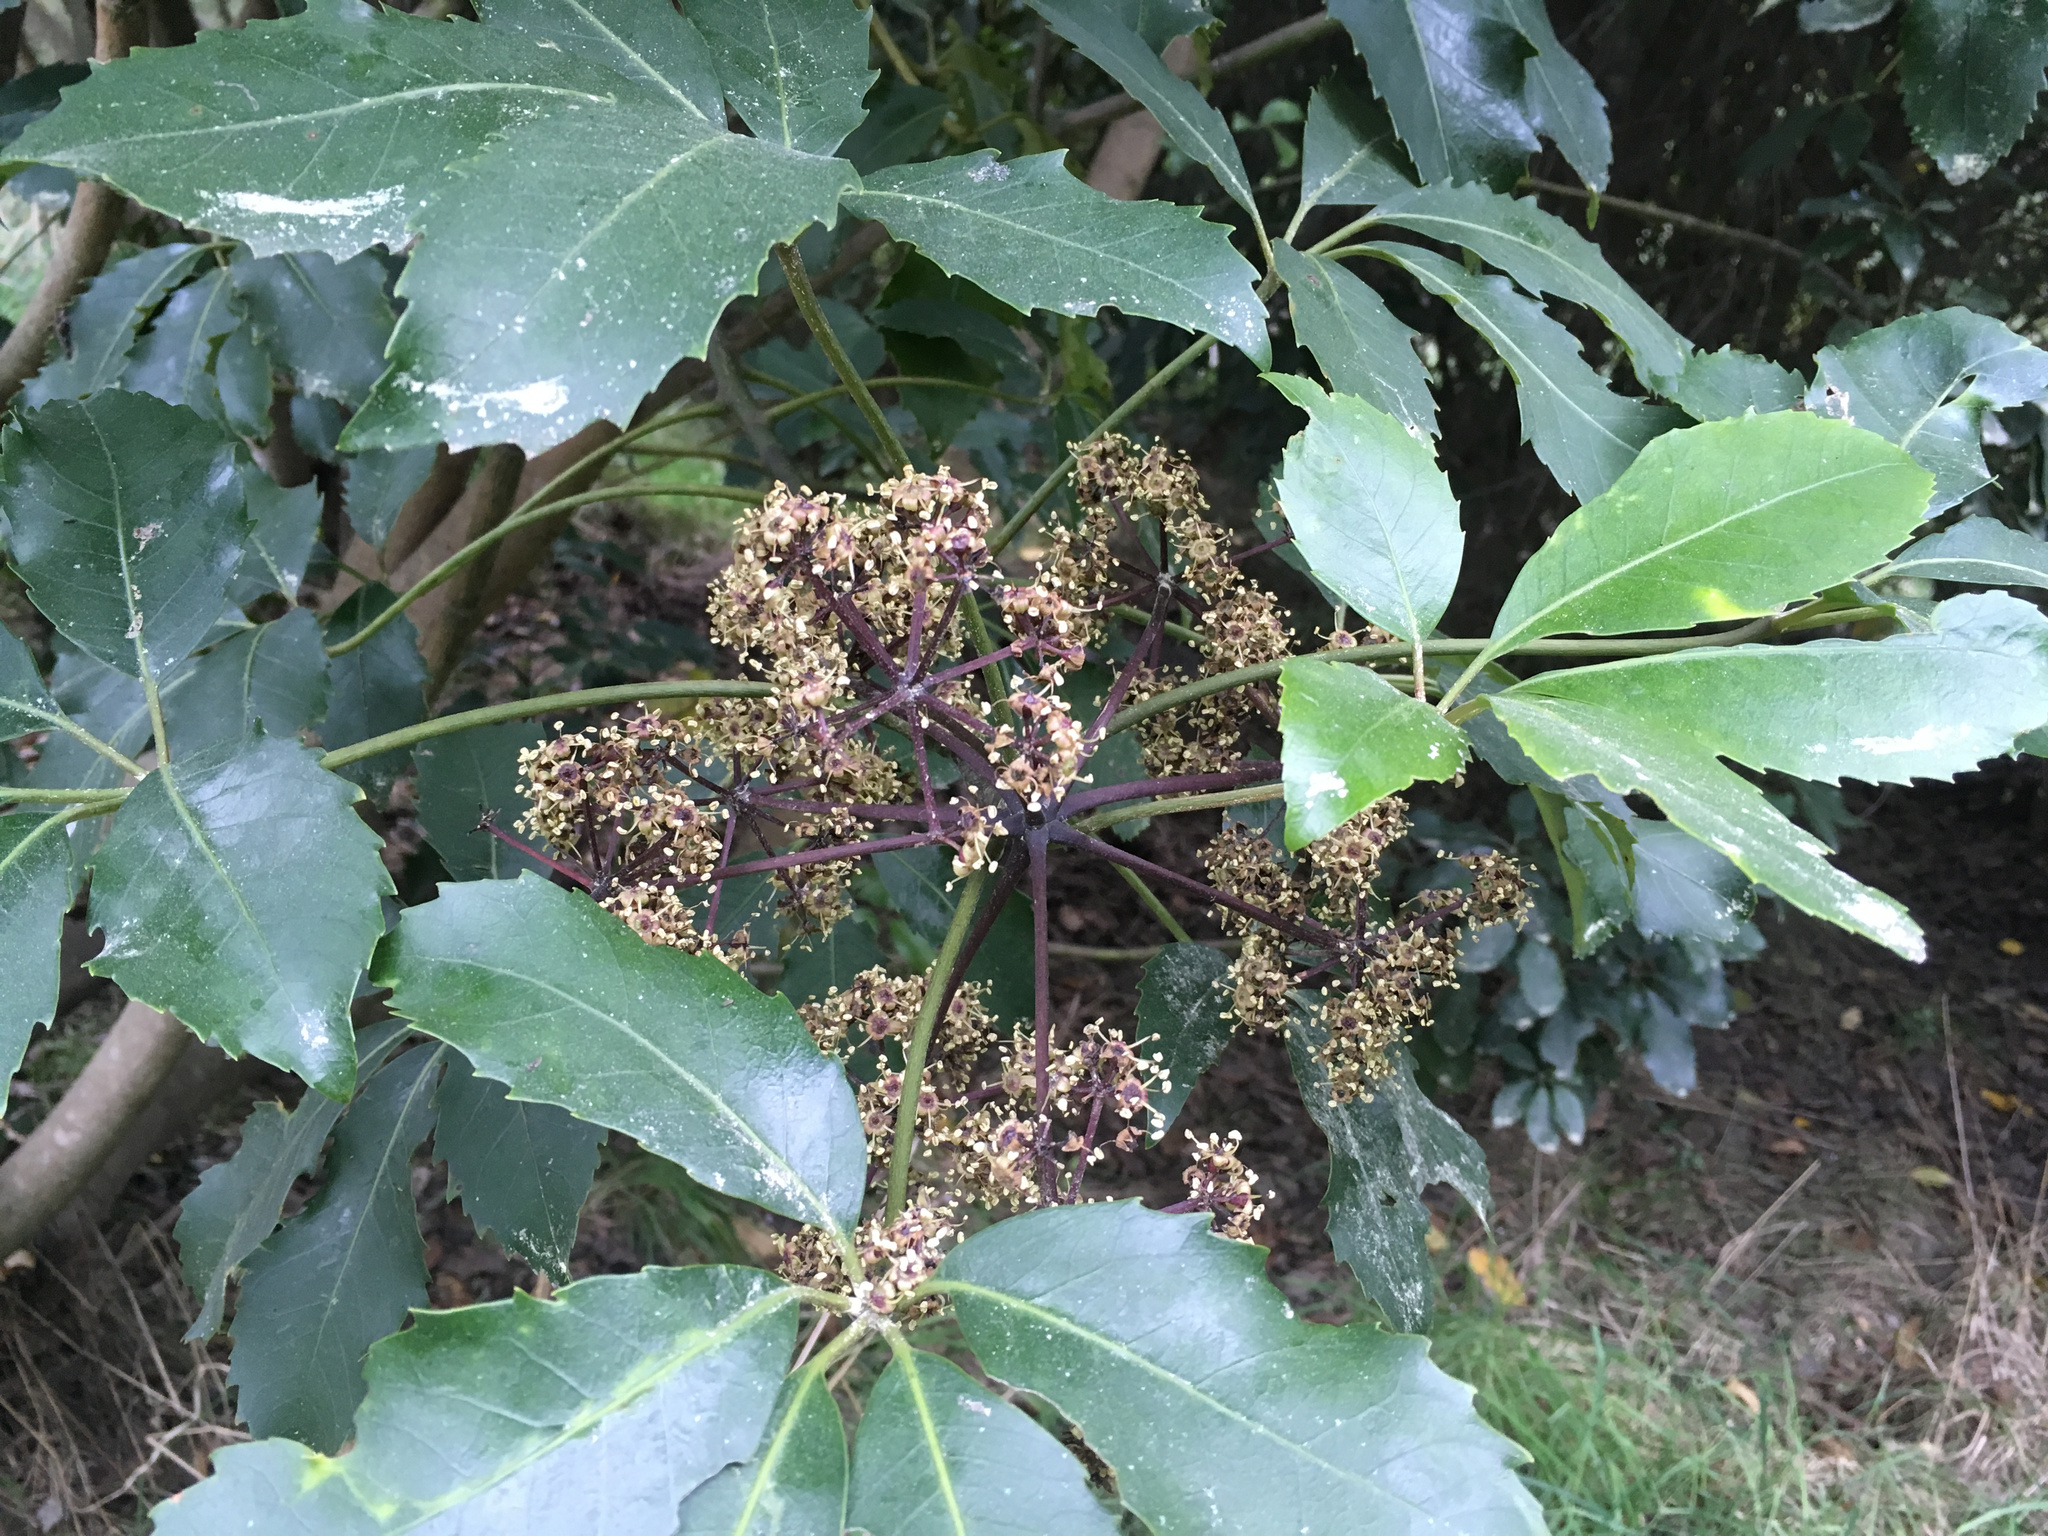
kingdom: Plantae
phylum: Tracheophyta
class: Magnoliopsida
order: Apiales
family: Araliaceae
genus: Neopanax
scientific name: Neopanax arboreus
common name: Five-fingers
